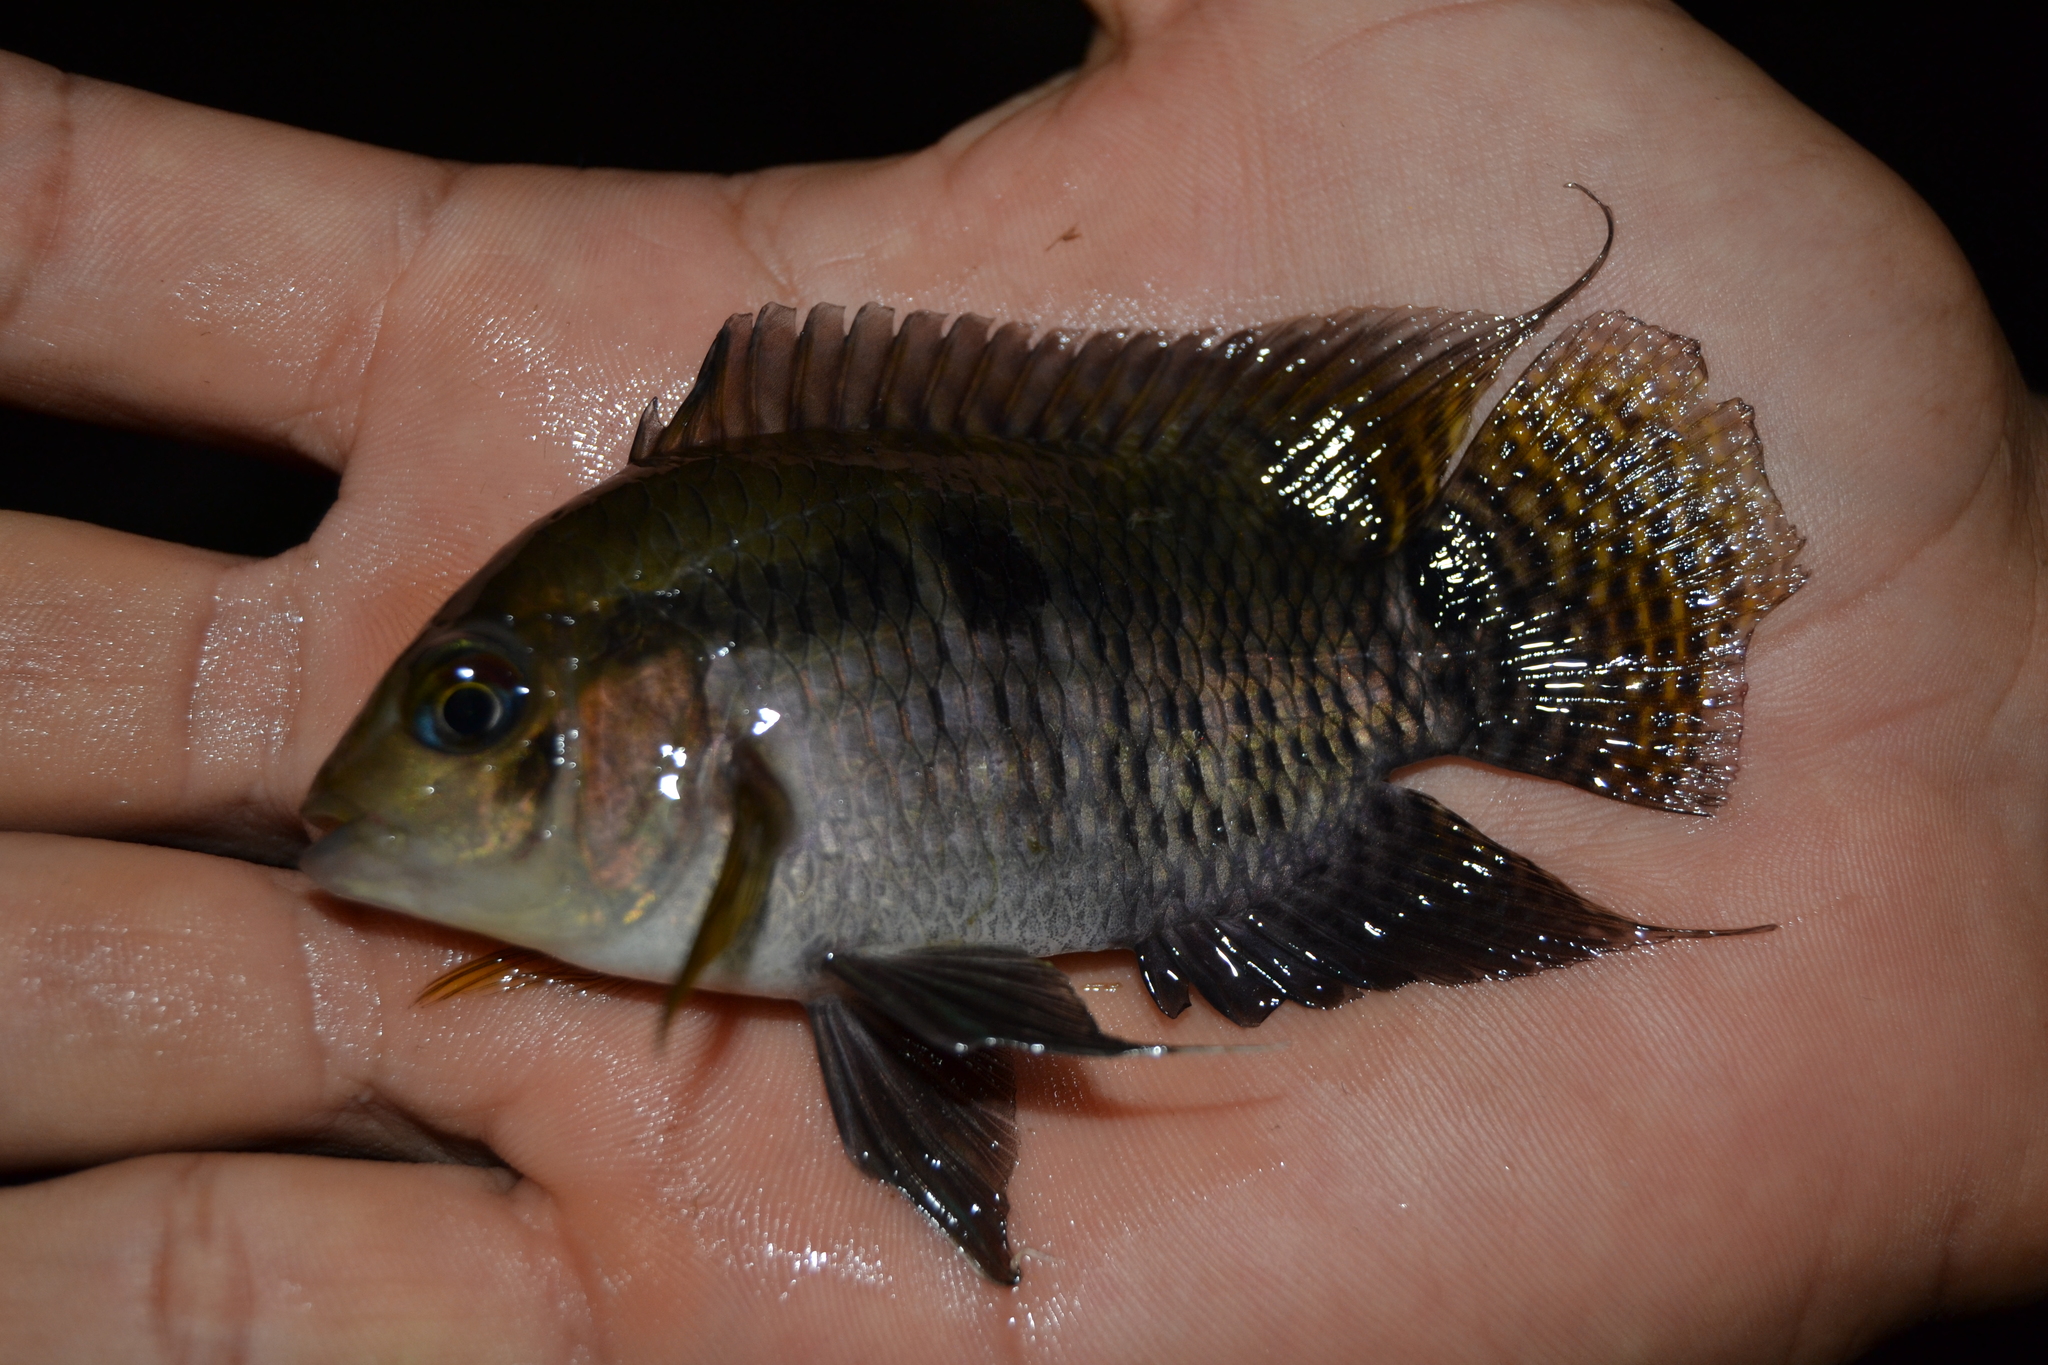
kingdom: Animalia
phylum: Chordata
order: Perciformes
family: Cichlidae
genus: Cichlasoma
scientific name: Cichlasoma amazonarum
